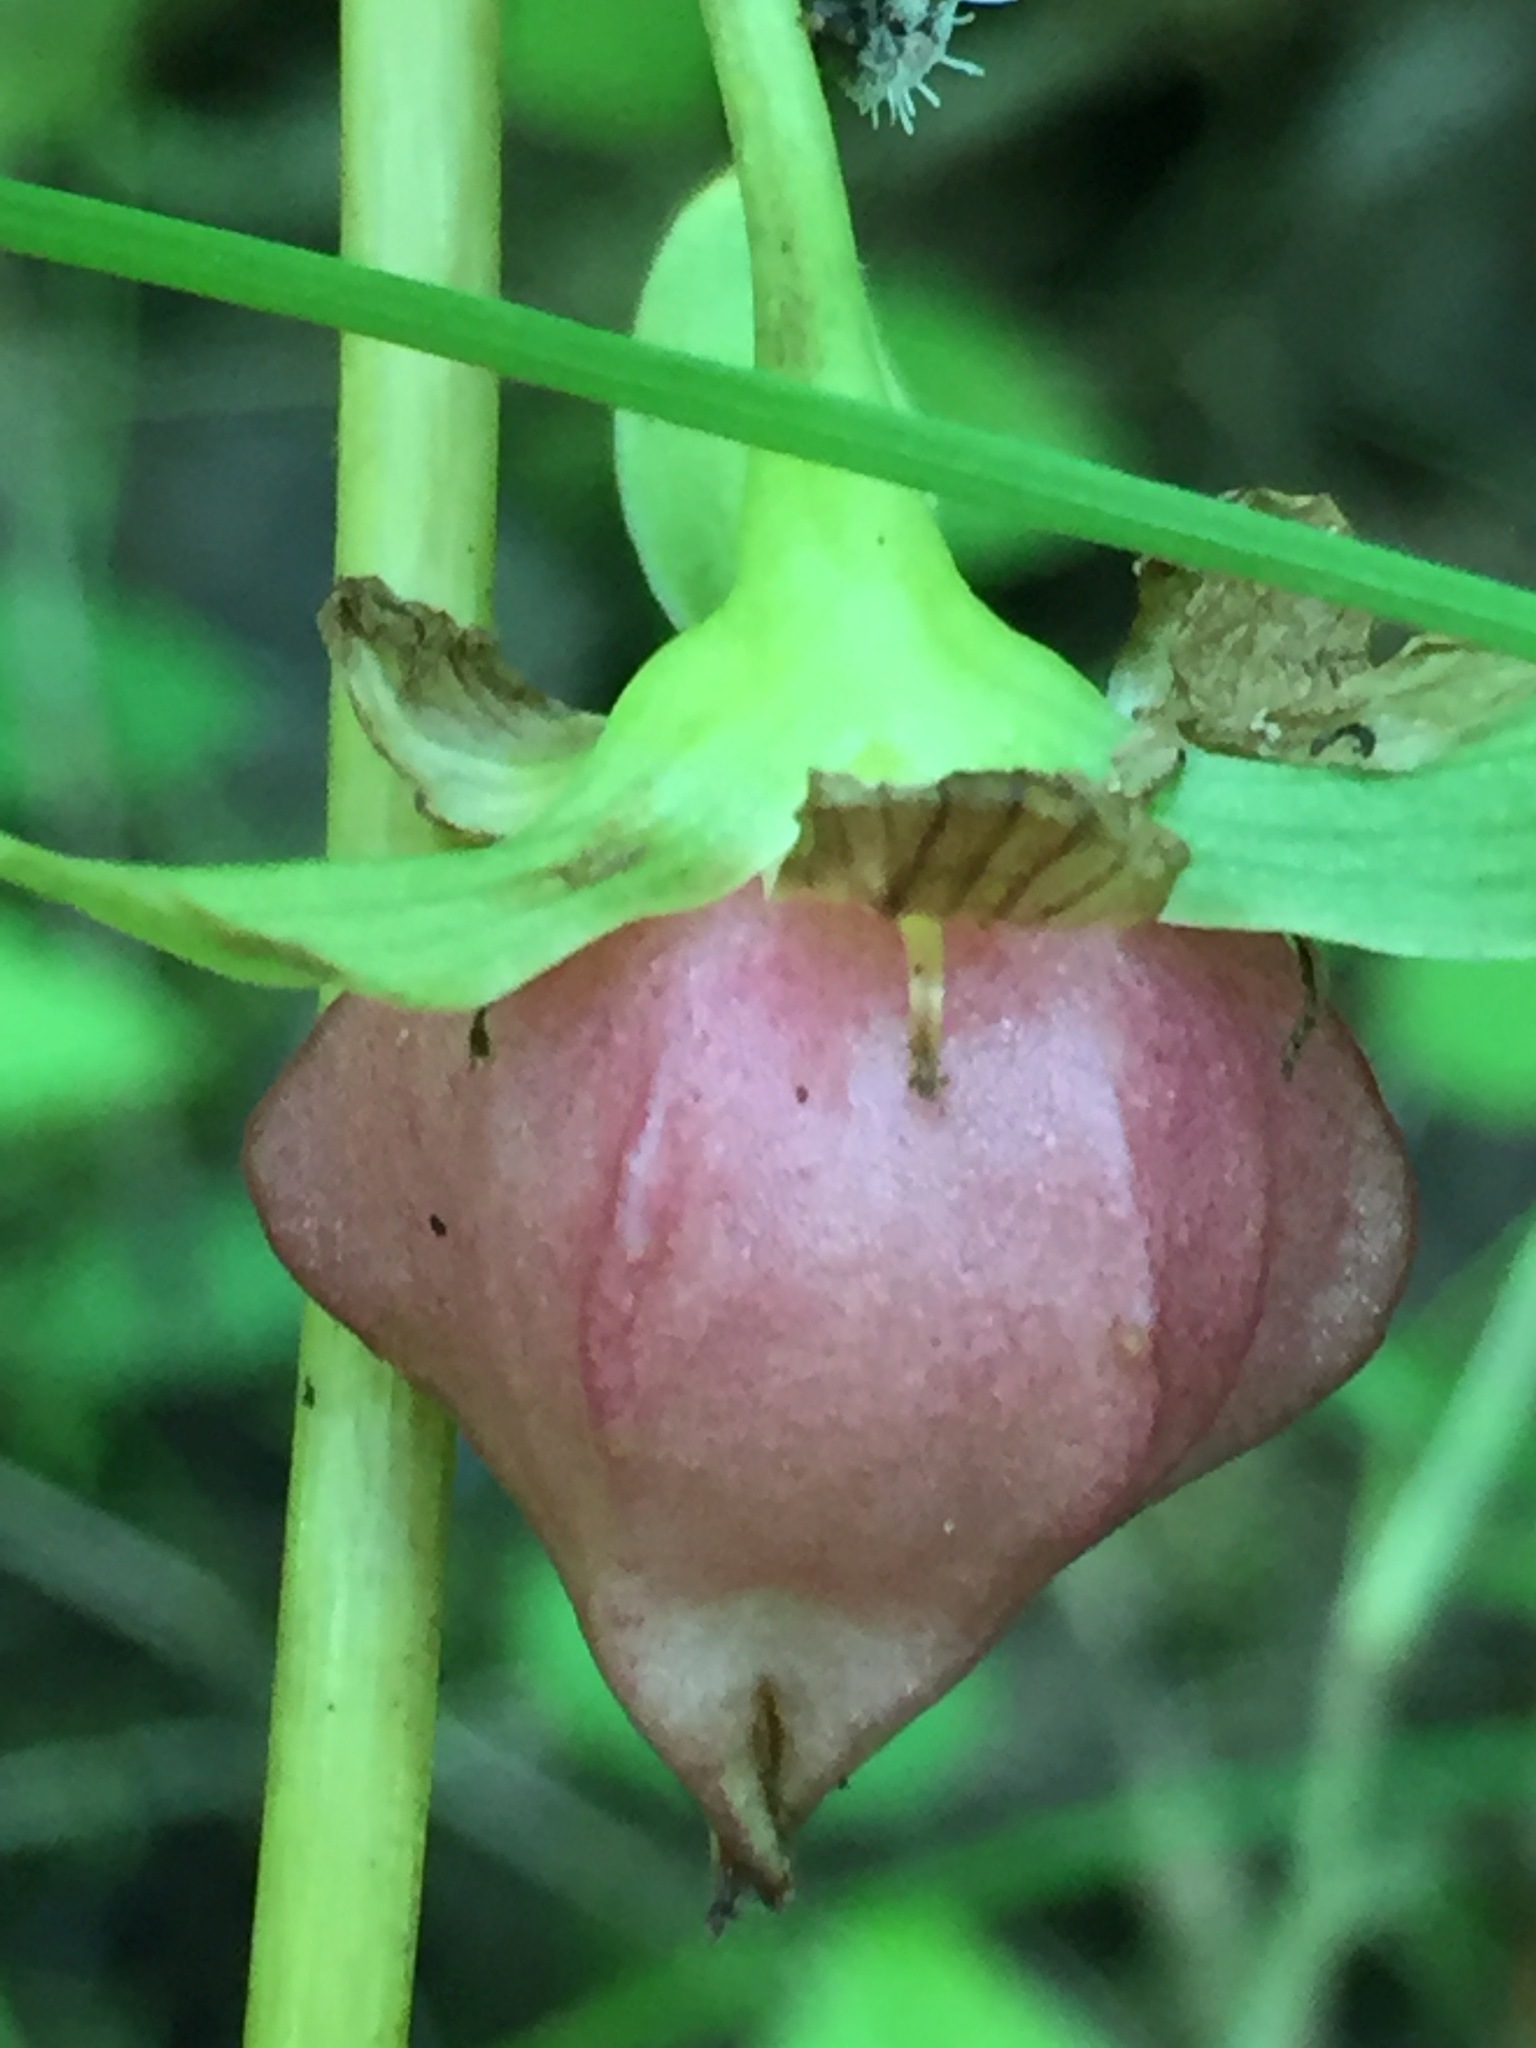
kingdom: Plantae
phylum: Tracheophyta
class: Liliopsida
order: Liliales
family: Melanthiaceae
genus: Trillium
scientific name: Trillium cernuum
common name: Nodding trillium
